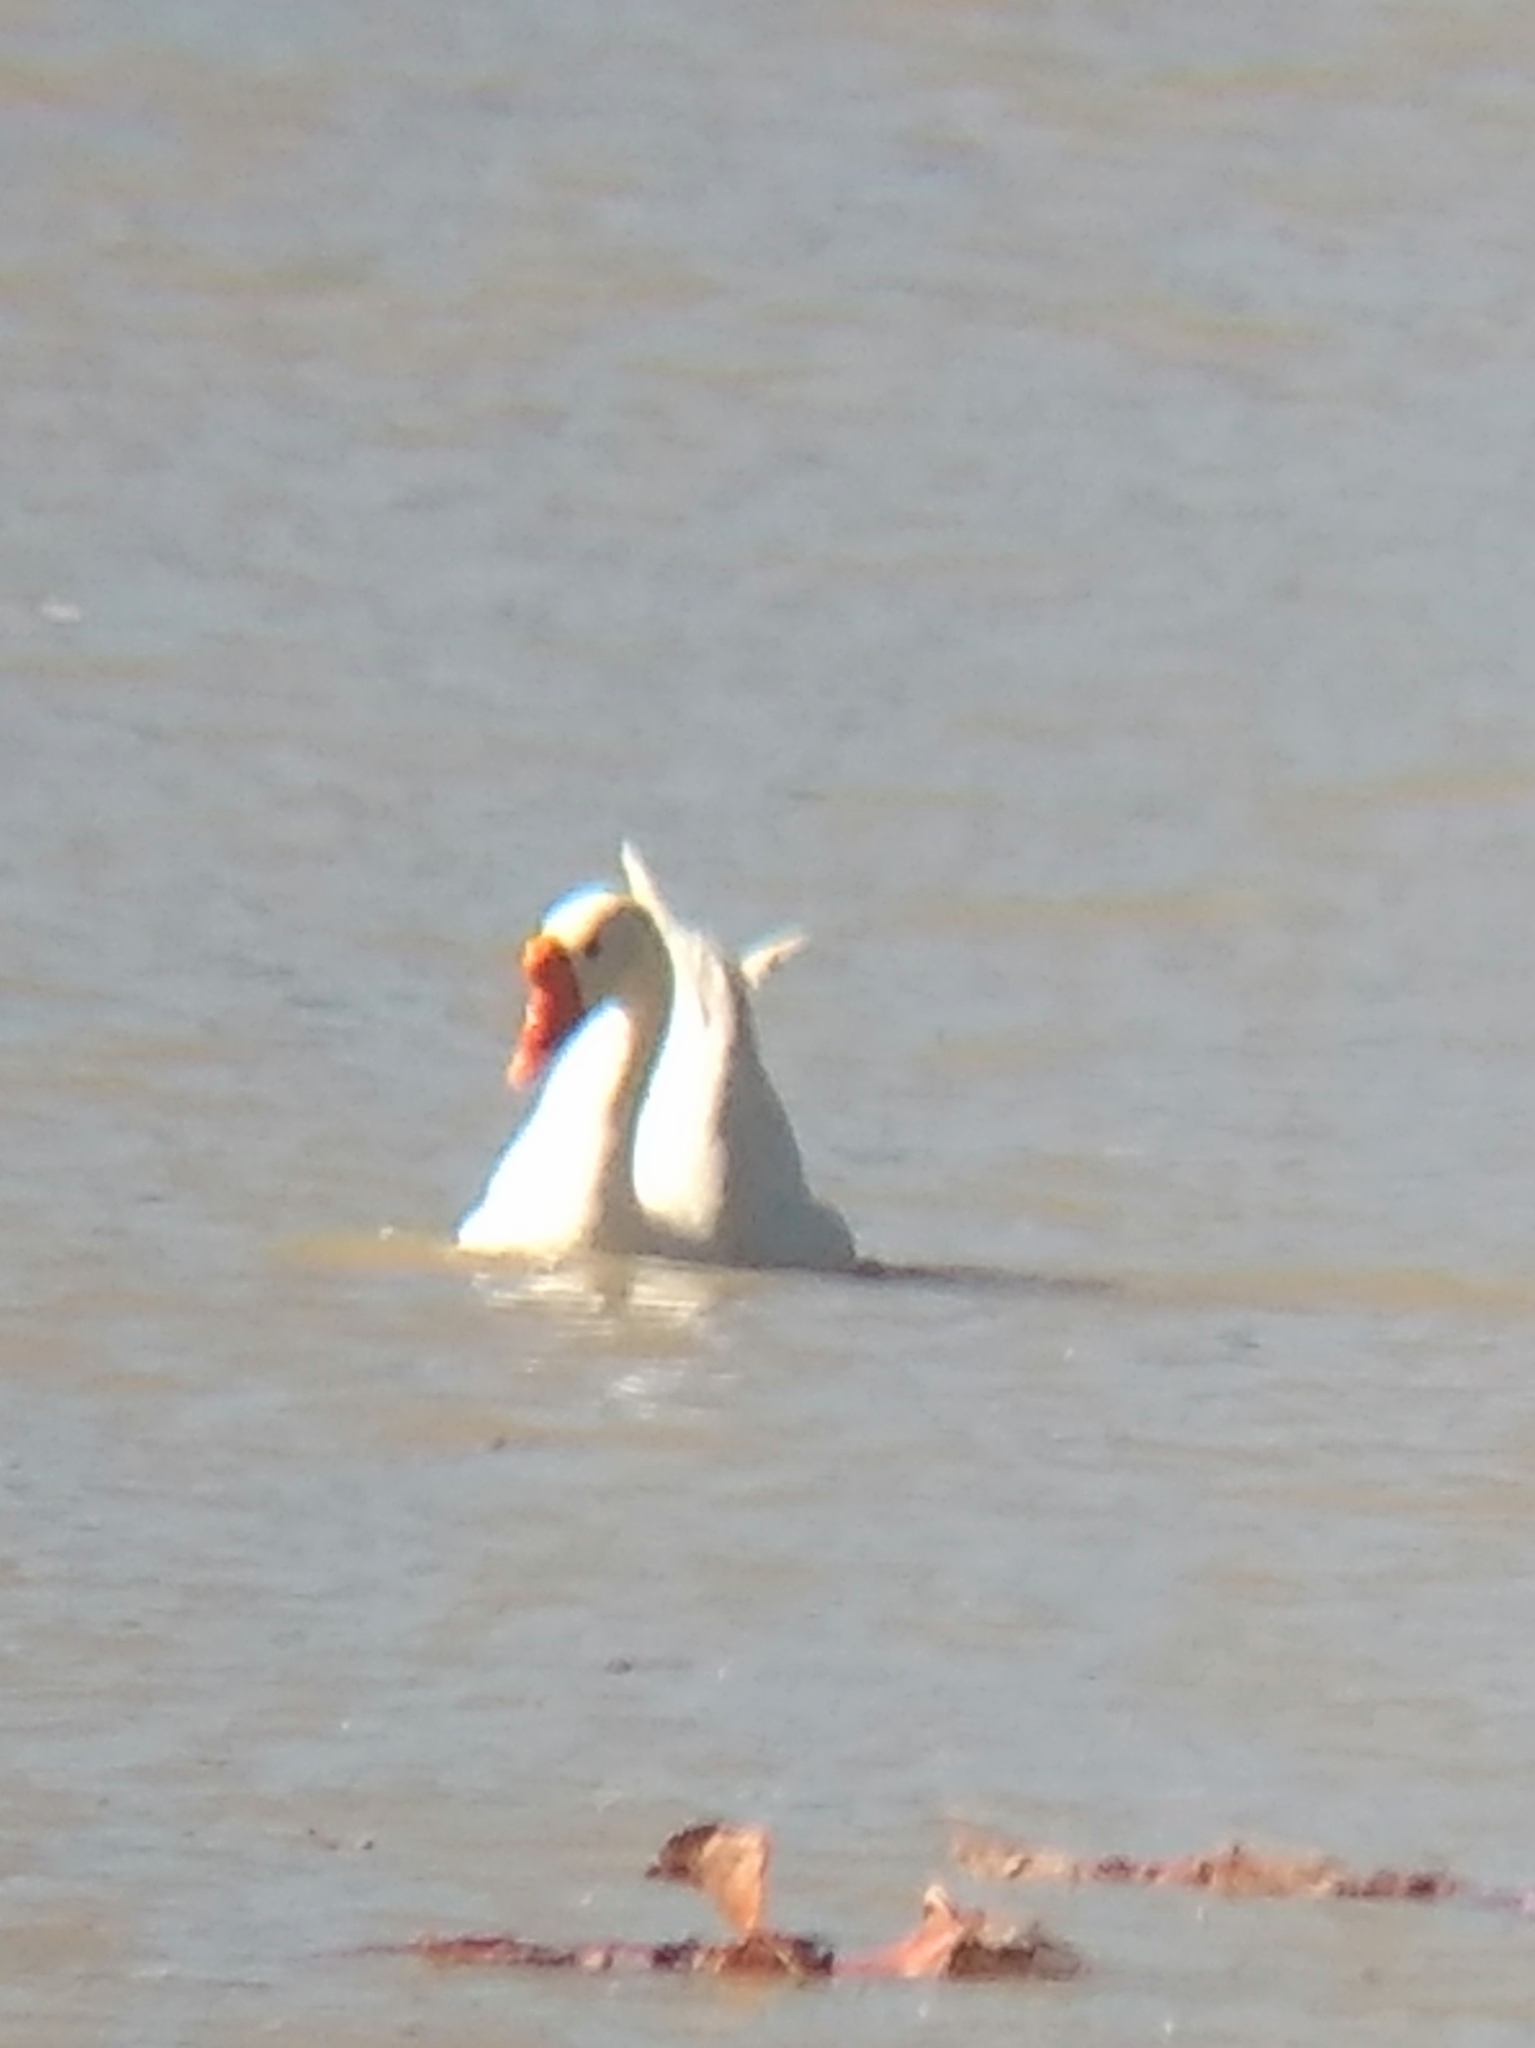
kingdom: Animalia
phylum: Chordata
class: Aves
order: Anseriformes
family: Anatidae
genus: Anser
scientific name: Anser cygnoides
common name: Swan goose
